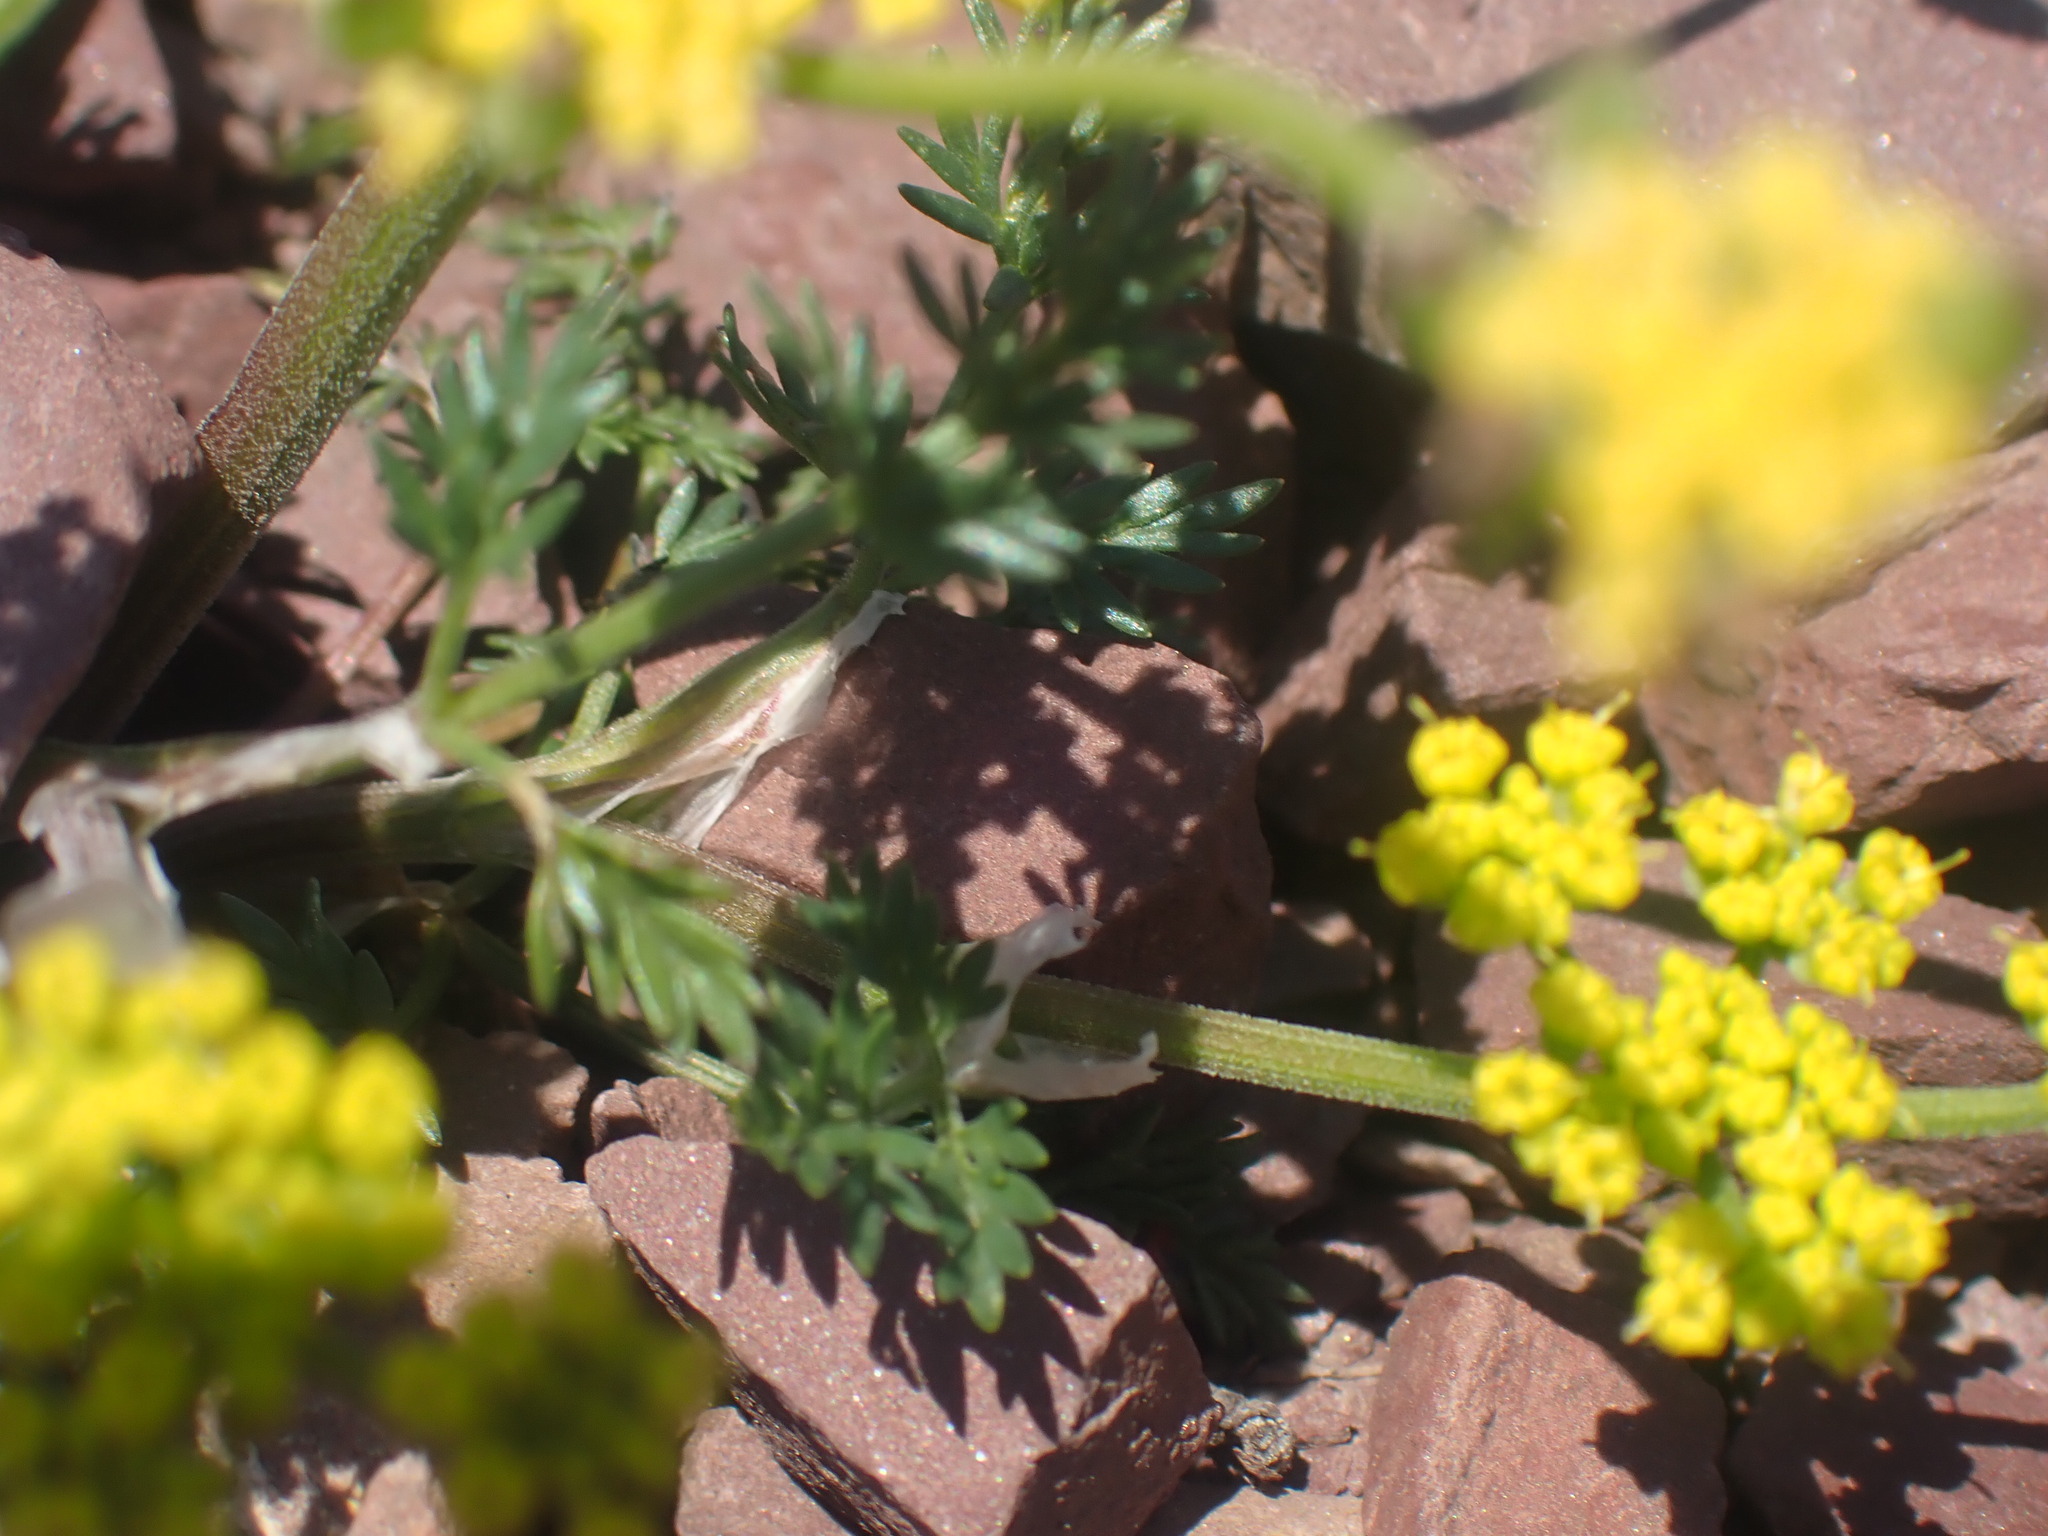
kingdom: Plantae
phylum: Tracheophyta
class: Magnoliopsida
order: Apiales
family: Apiaceae
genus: Lomatium
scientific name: Lomatium sandbergii
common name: Sandberg's biscuitroot
